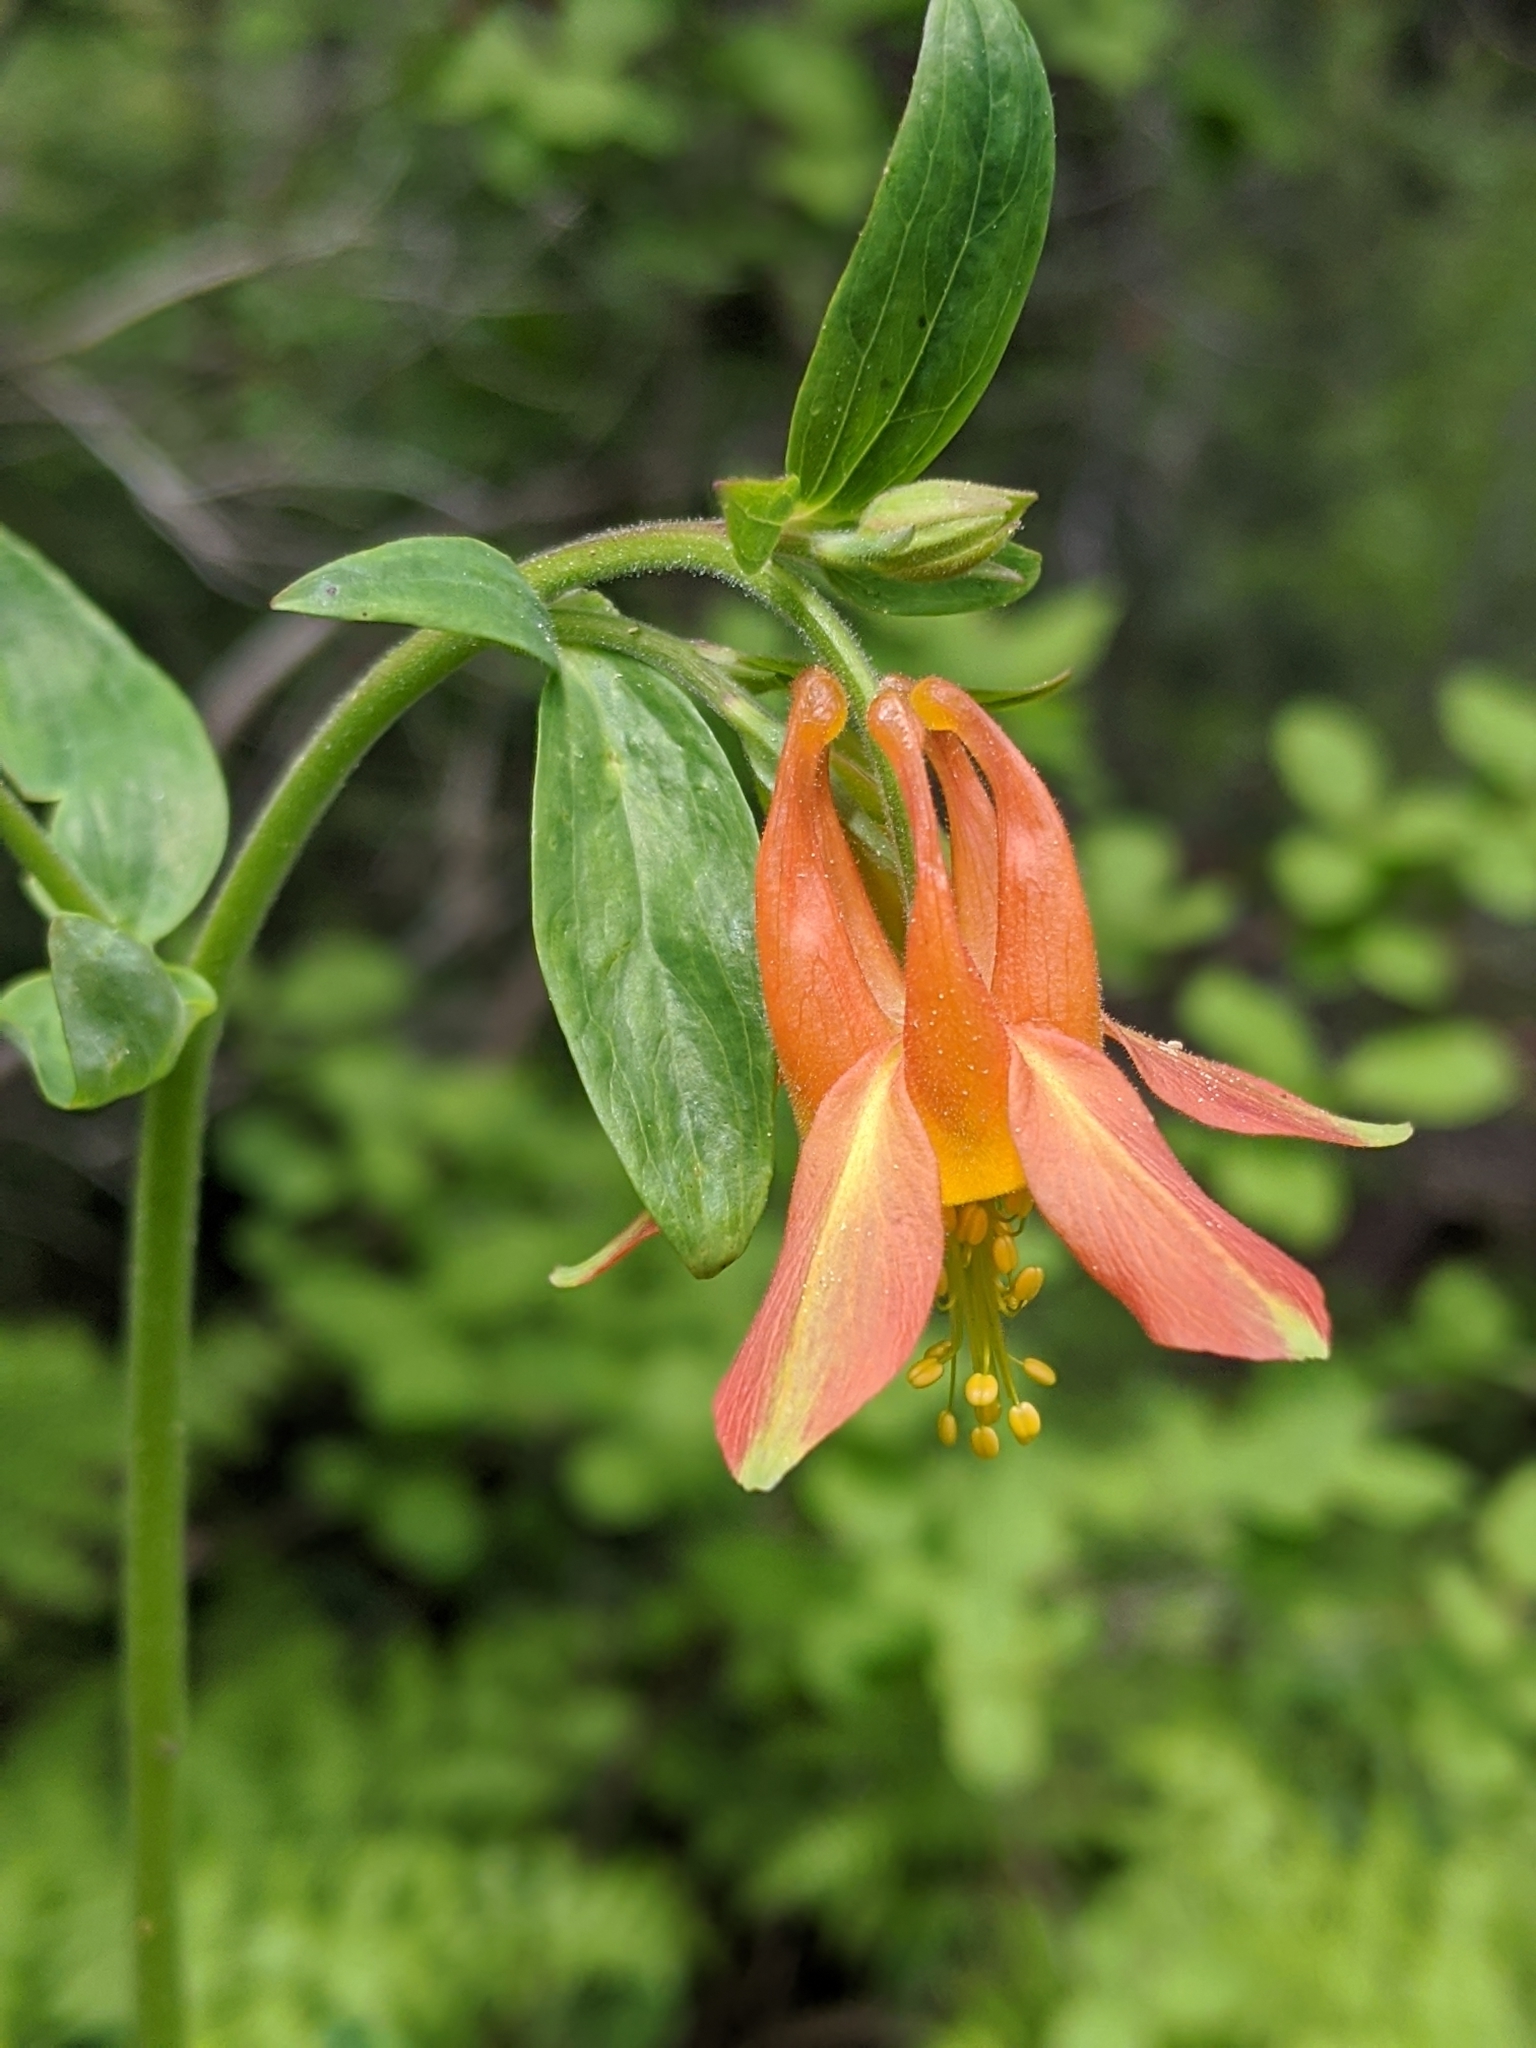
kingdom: Plantae
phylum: Tracheophyta
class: Magnoliopsida
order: Ranunculales
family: Ranunculaceae
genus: Aquilegia
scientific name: Aquilegia formosa
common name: Sitka columbine
